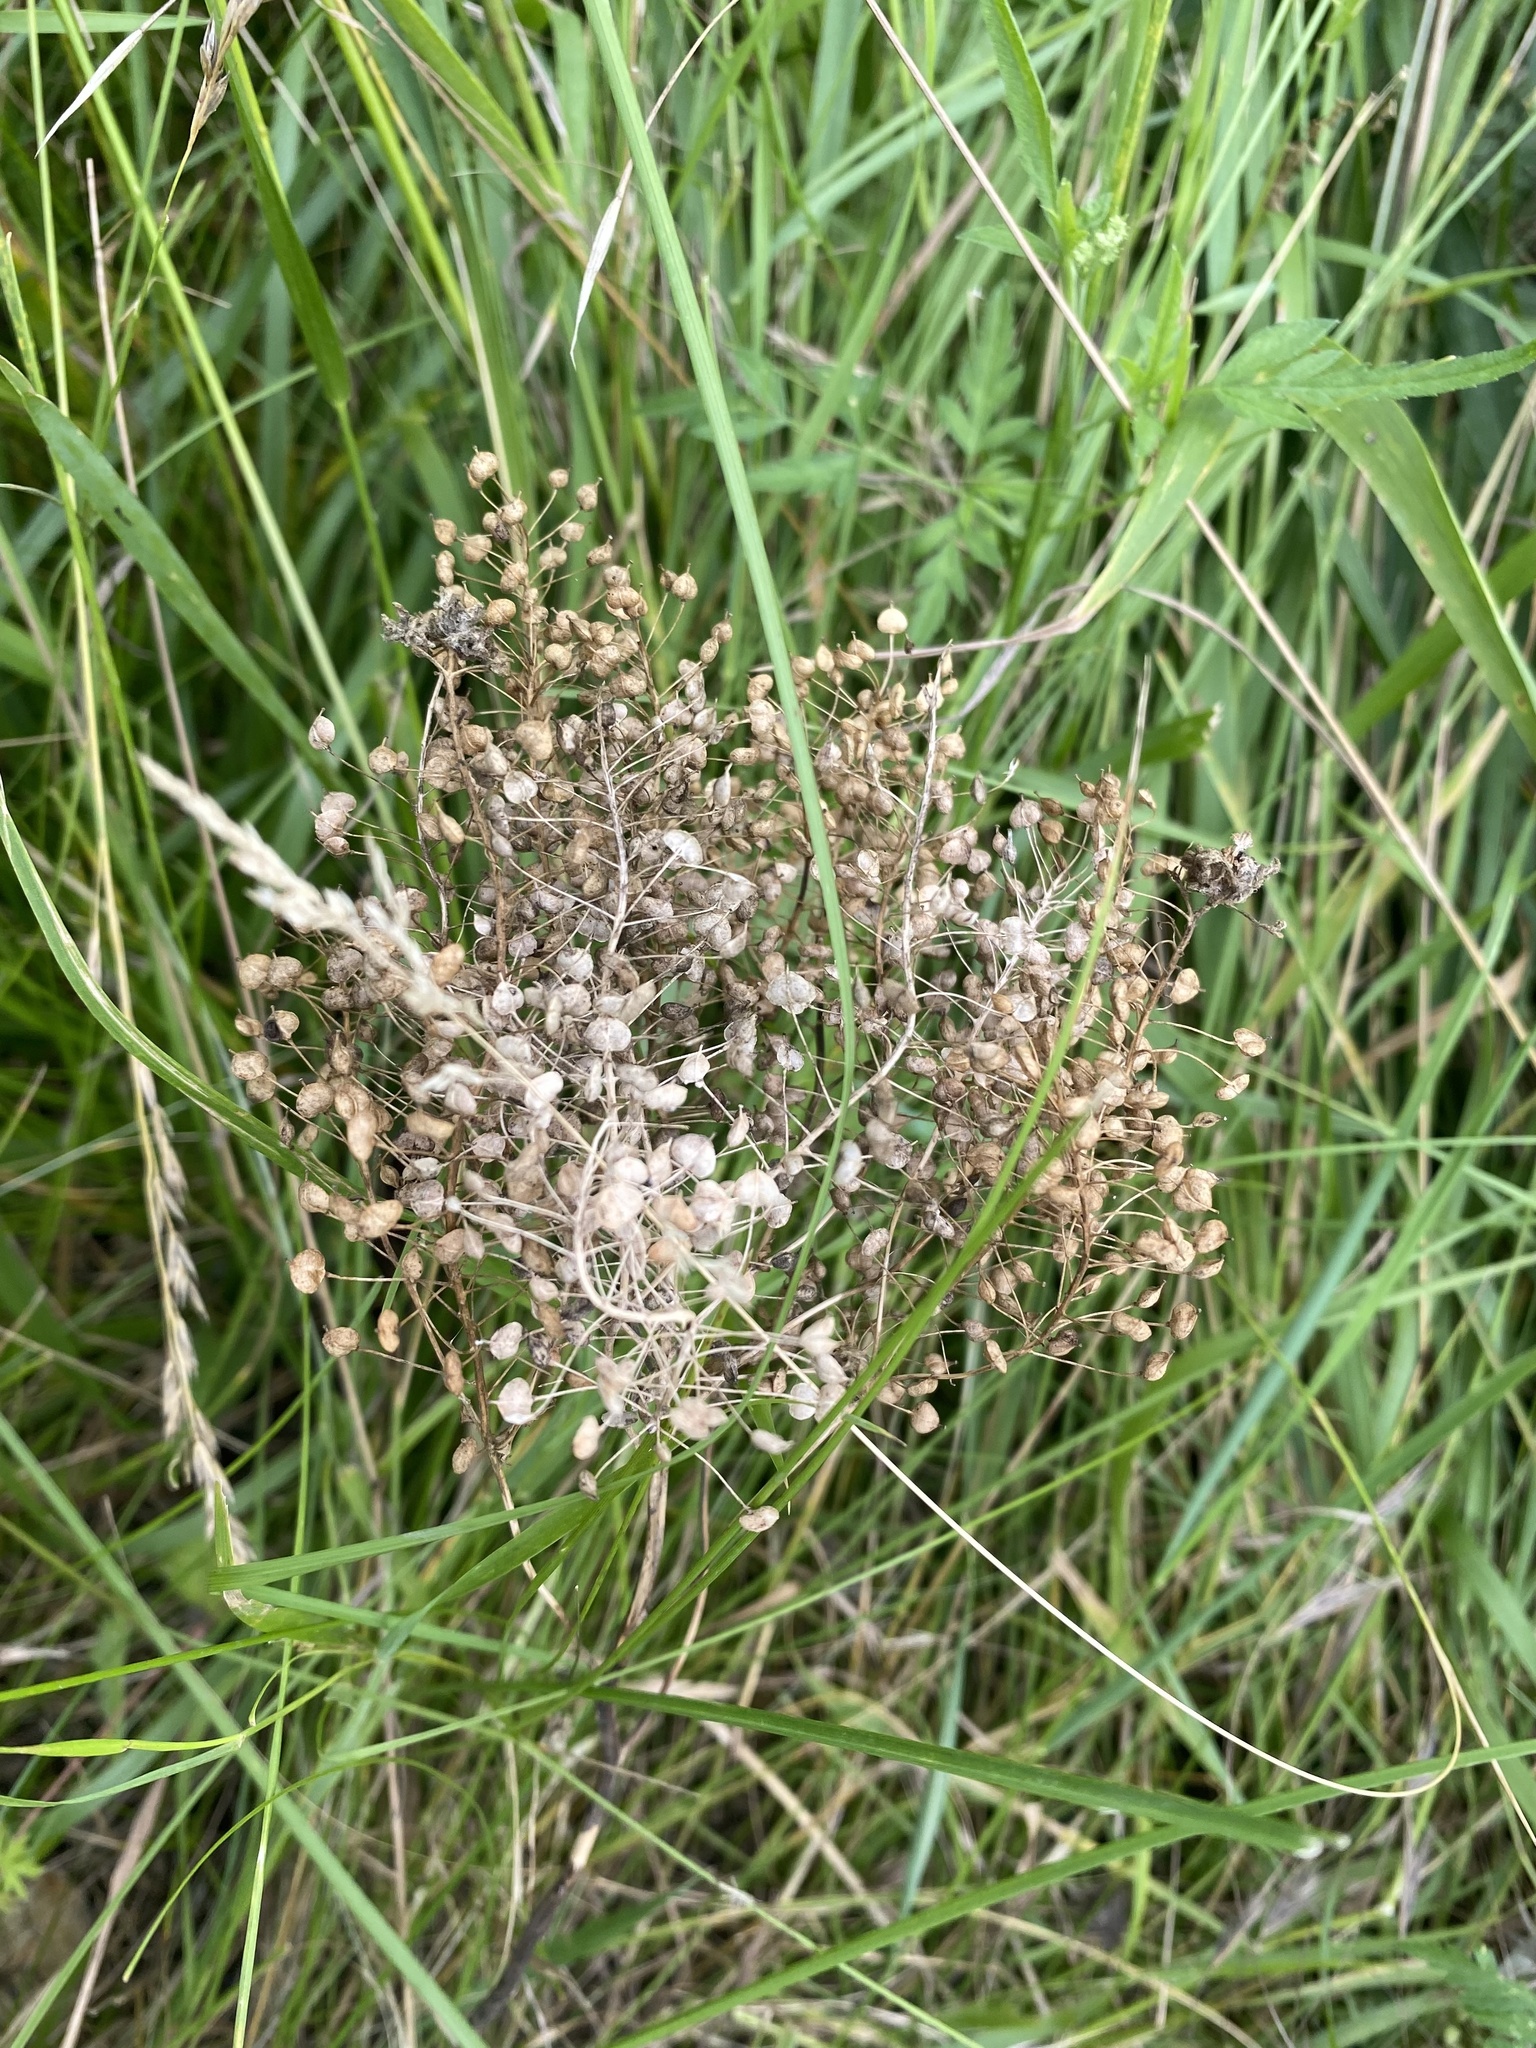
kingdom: Plantae
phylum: Tracheophyta
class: Magnoliopsida
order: Brassicales
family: Brassicaceae
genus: Lepidium
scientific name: Lepidium draba
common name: Hoary cress
